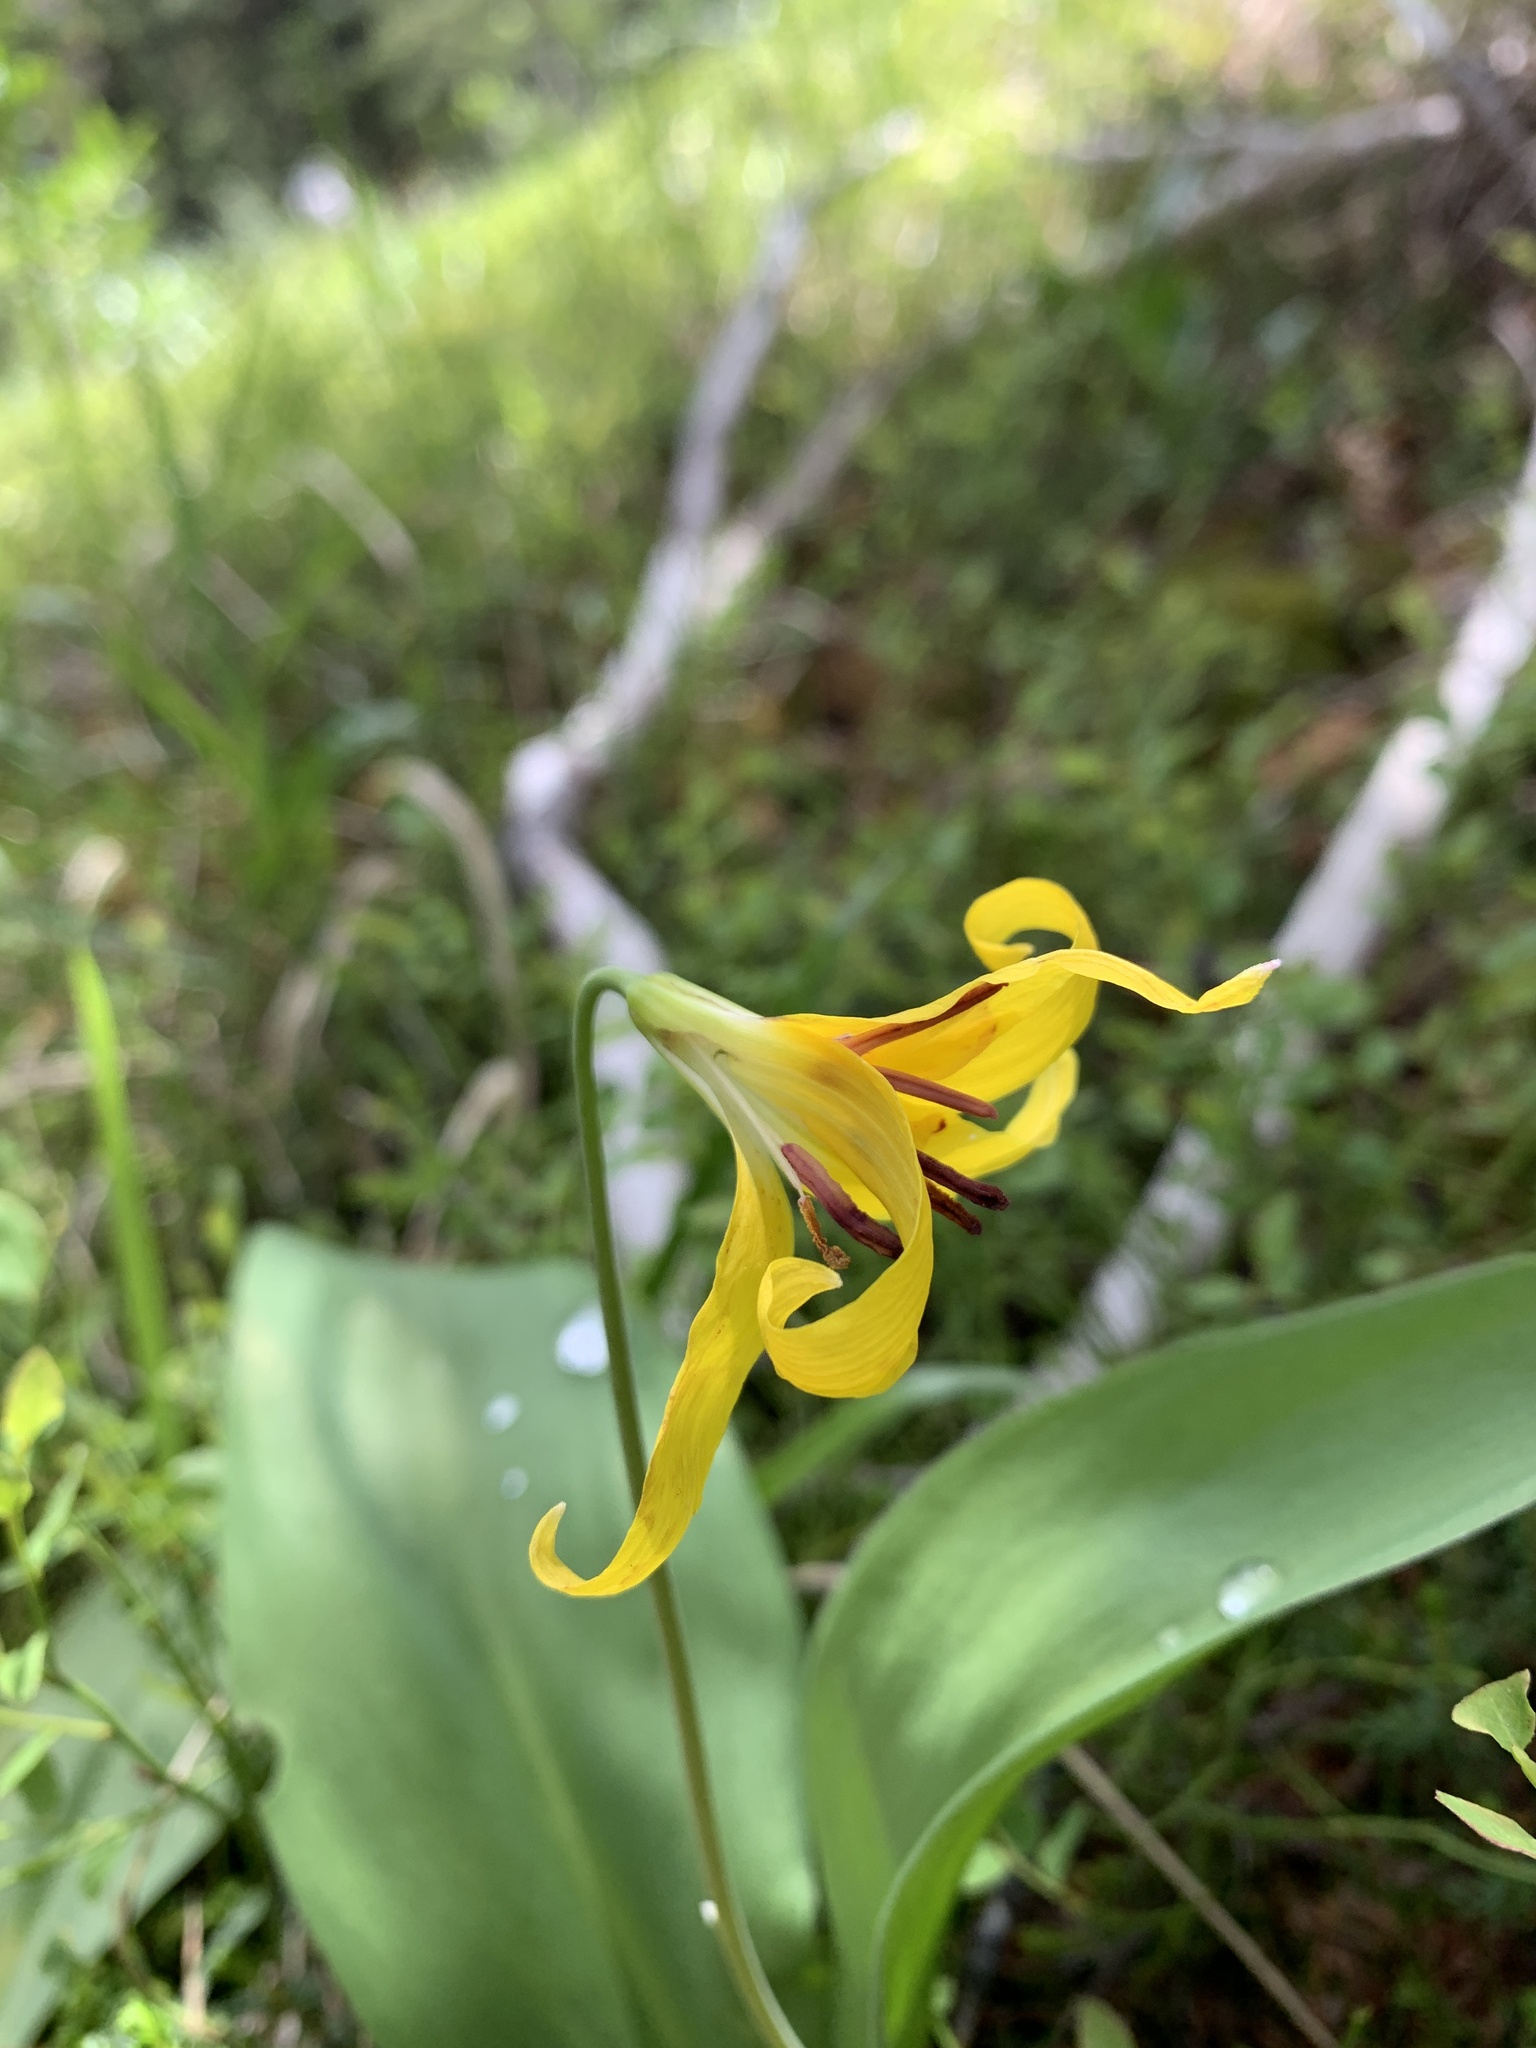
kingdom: Plantae
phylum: Tracheophyta
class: Liliopsida
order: Liliales
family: Liliaceae
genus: Erythronium
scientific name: Erythronium grandiflorum
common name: Avalanche-lily
